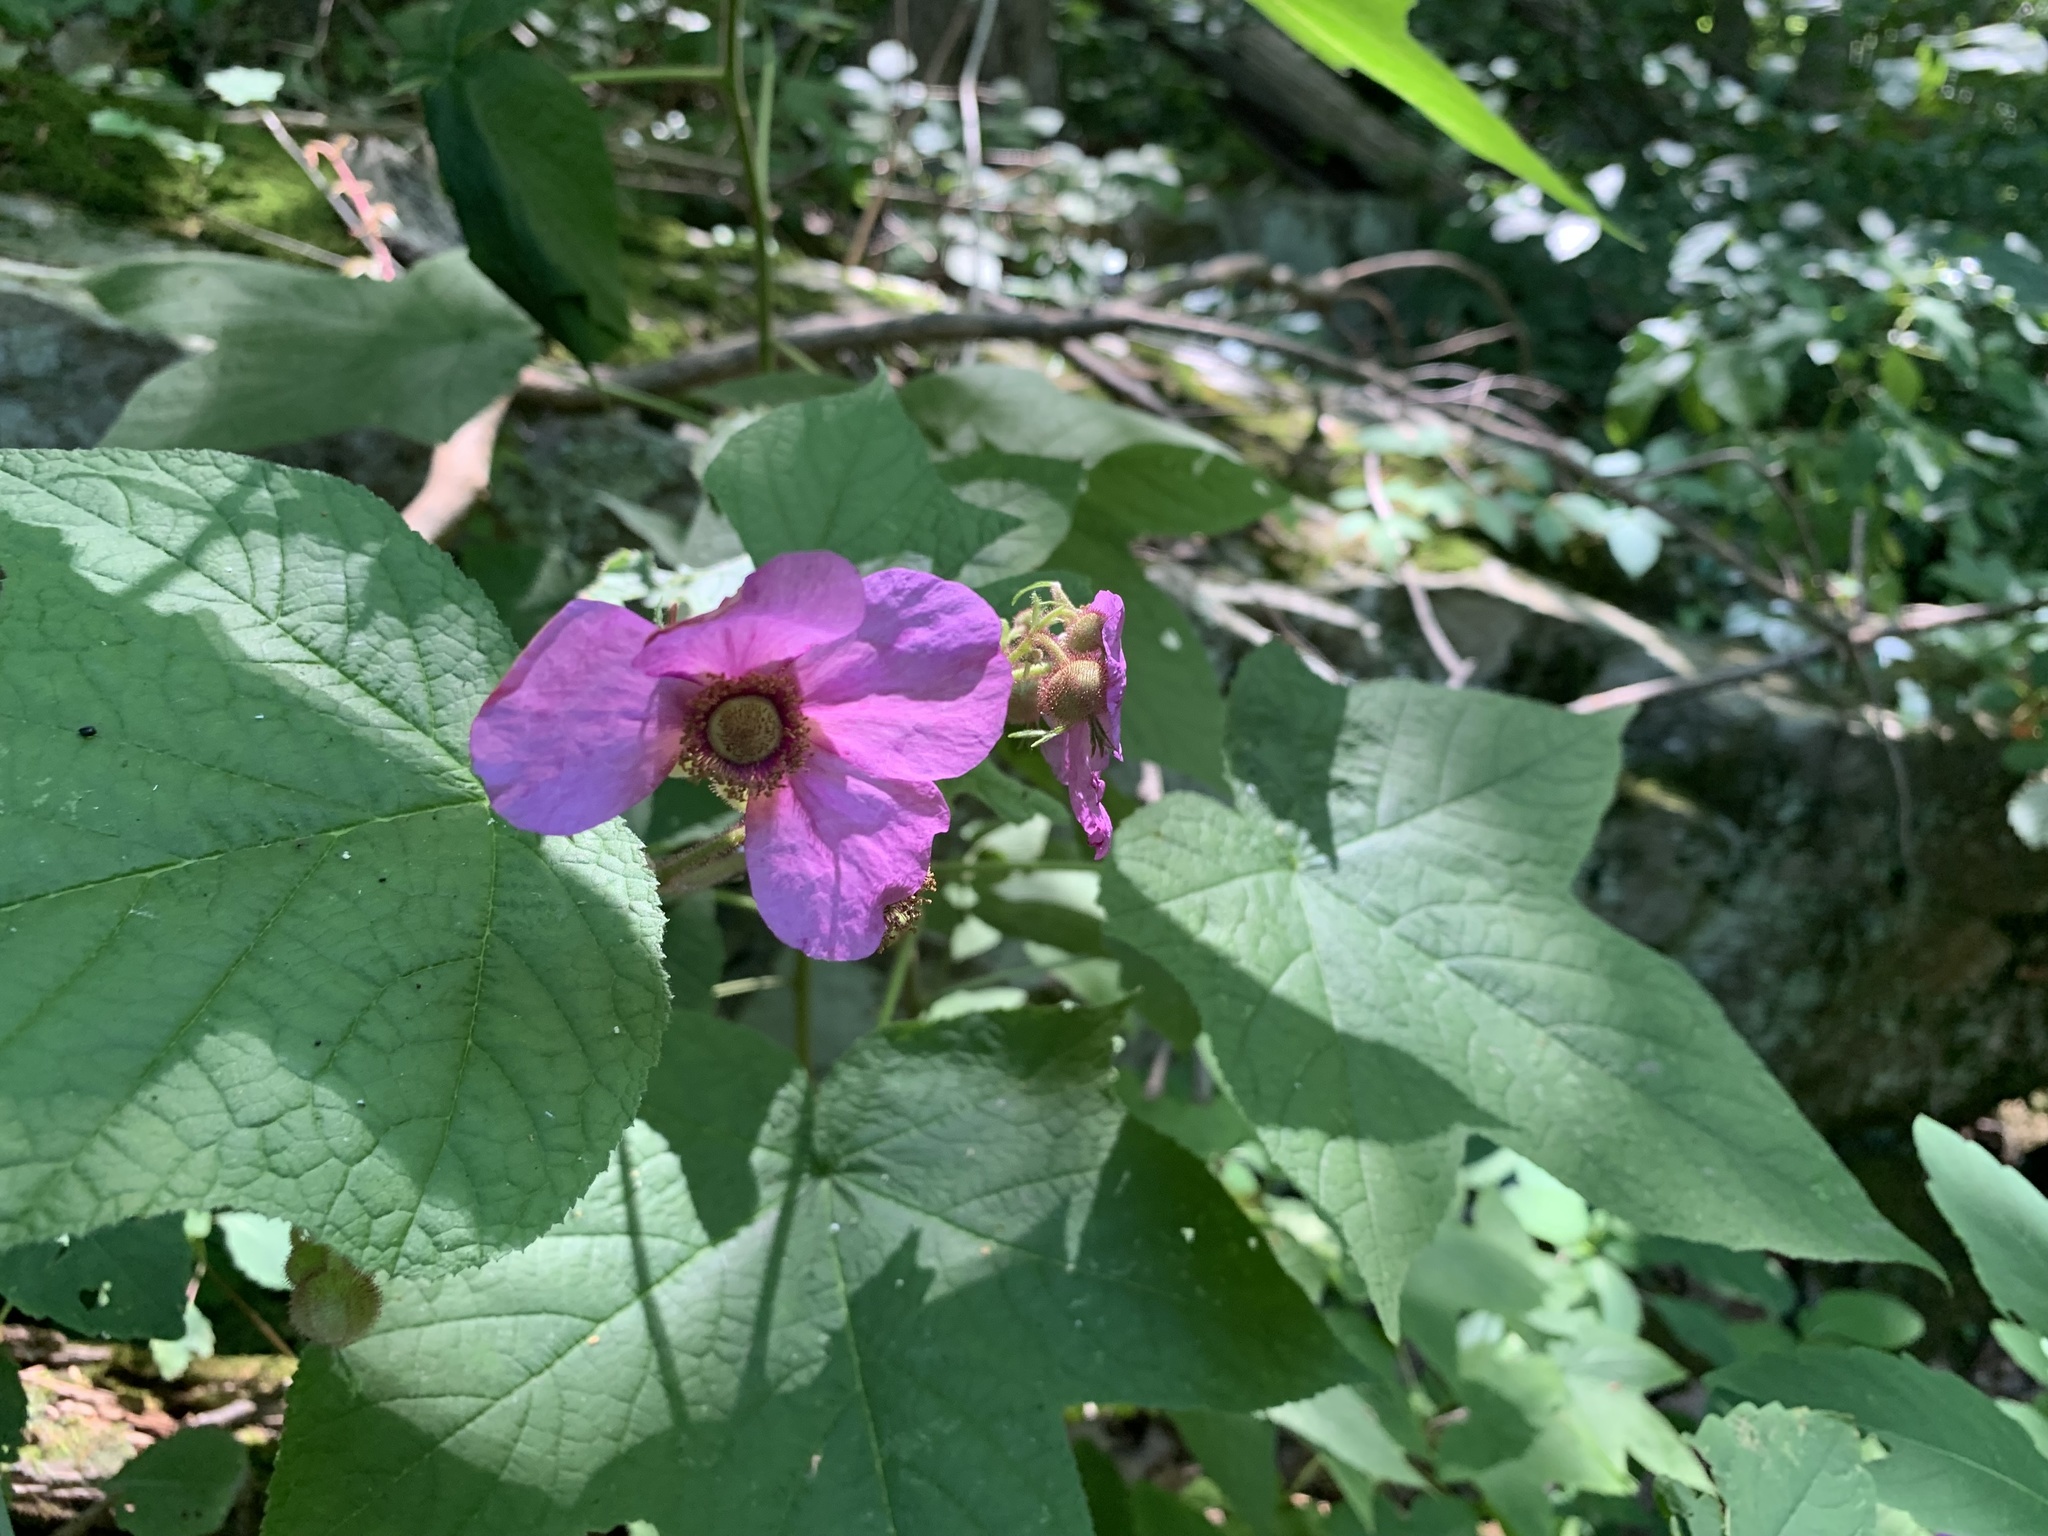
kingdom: Plantae
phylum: Tracheophyta
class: Magnoliopsida
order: Rosales
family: Rosaceae
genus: Rubus
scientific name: Rubus odoratus
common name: Purple-flowered raspberry
